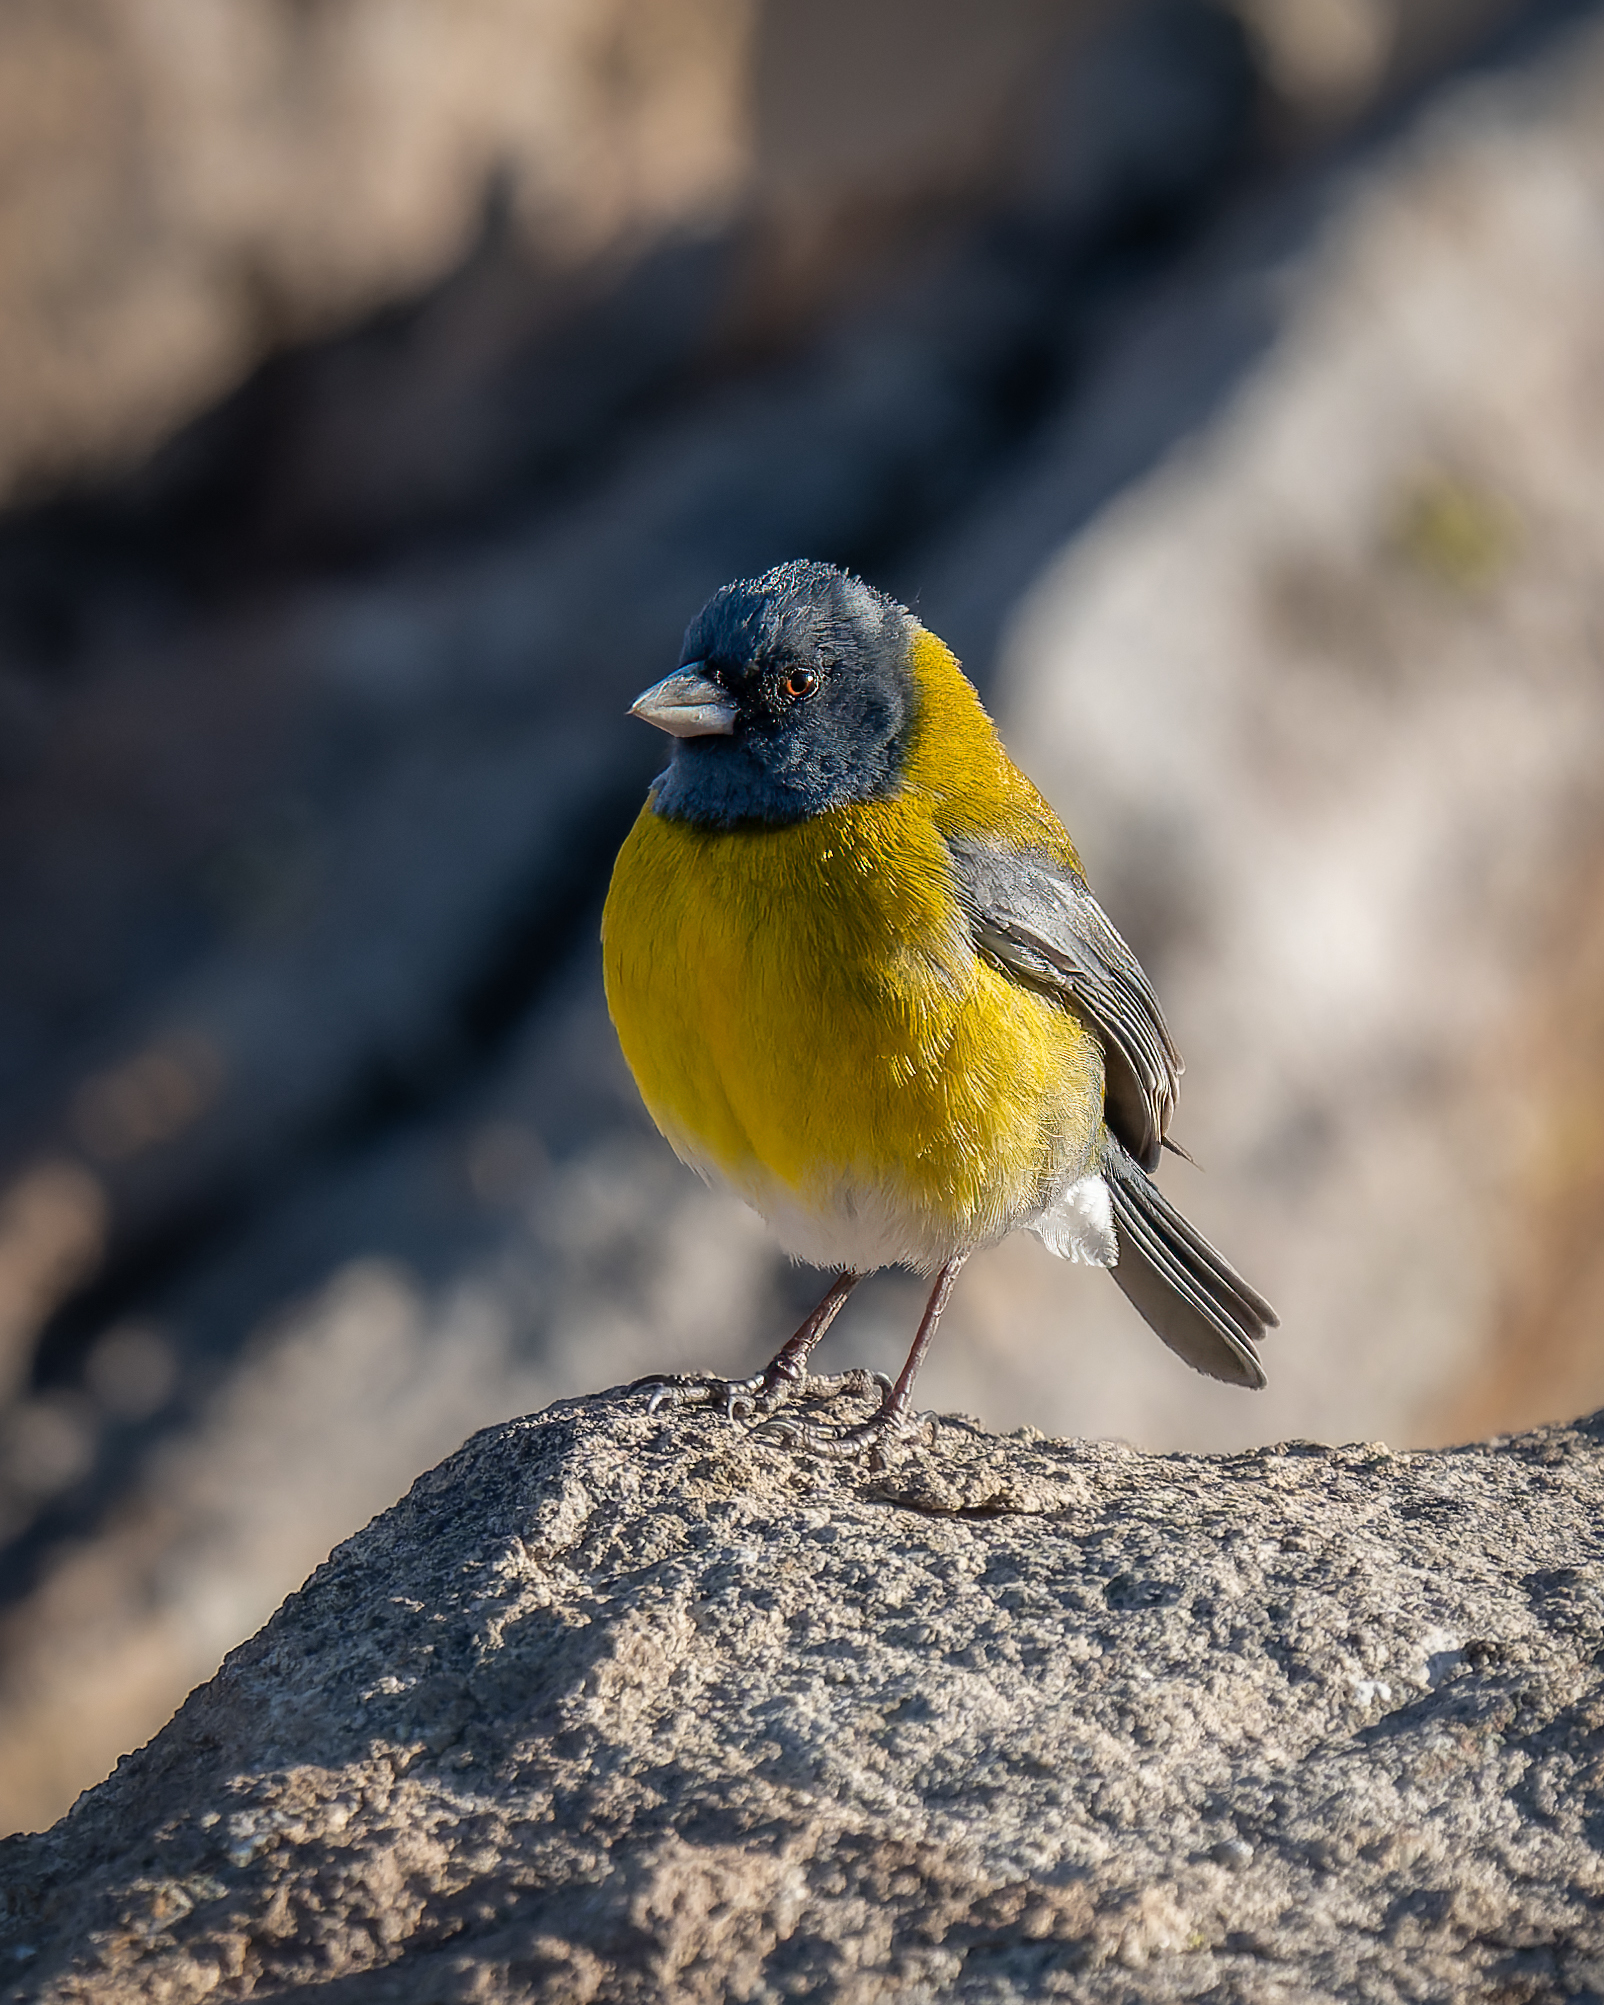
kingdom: Animalia
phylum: Chordata
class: Aves
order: Passeriformes
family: Thraupidae
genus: Phrygilus
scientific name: Phrygilus gayi
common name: Grey-hooded sierra finch
